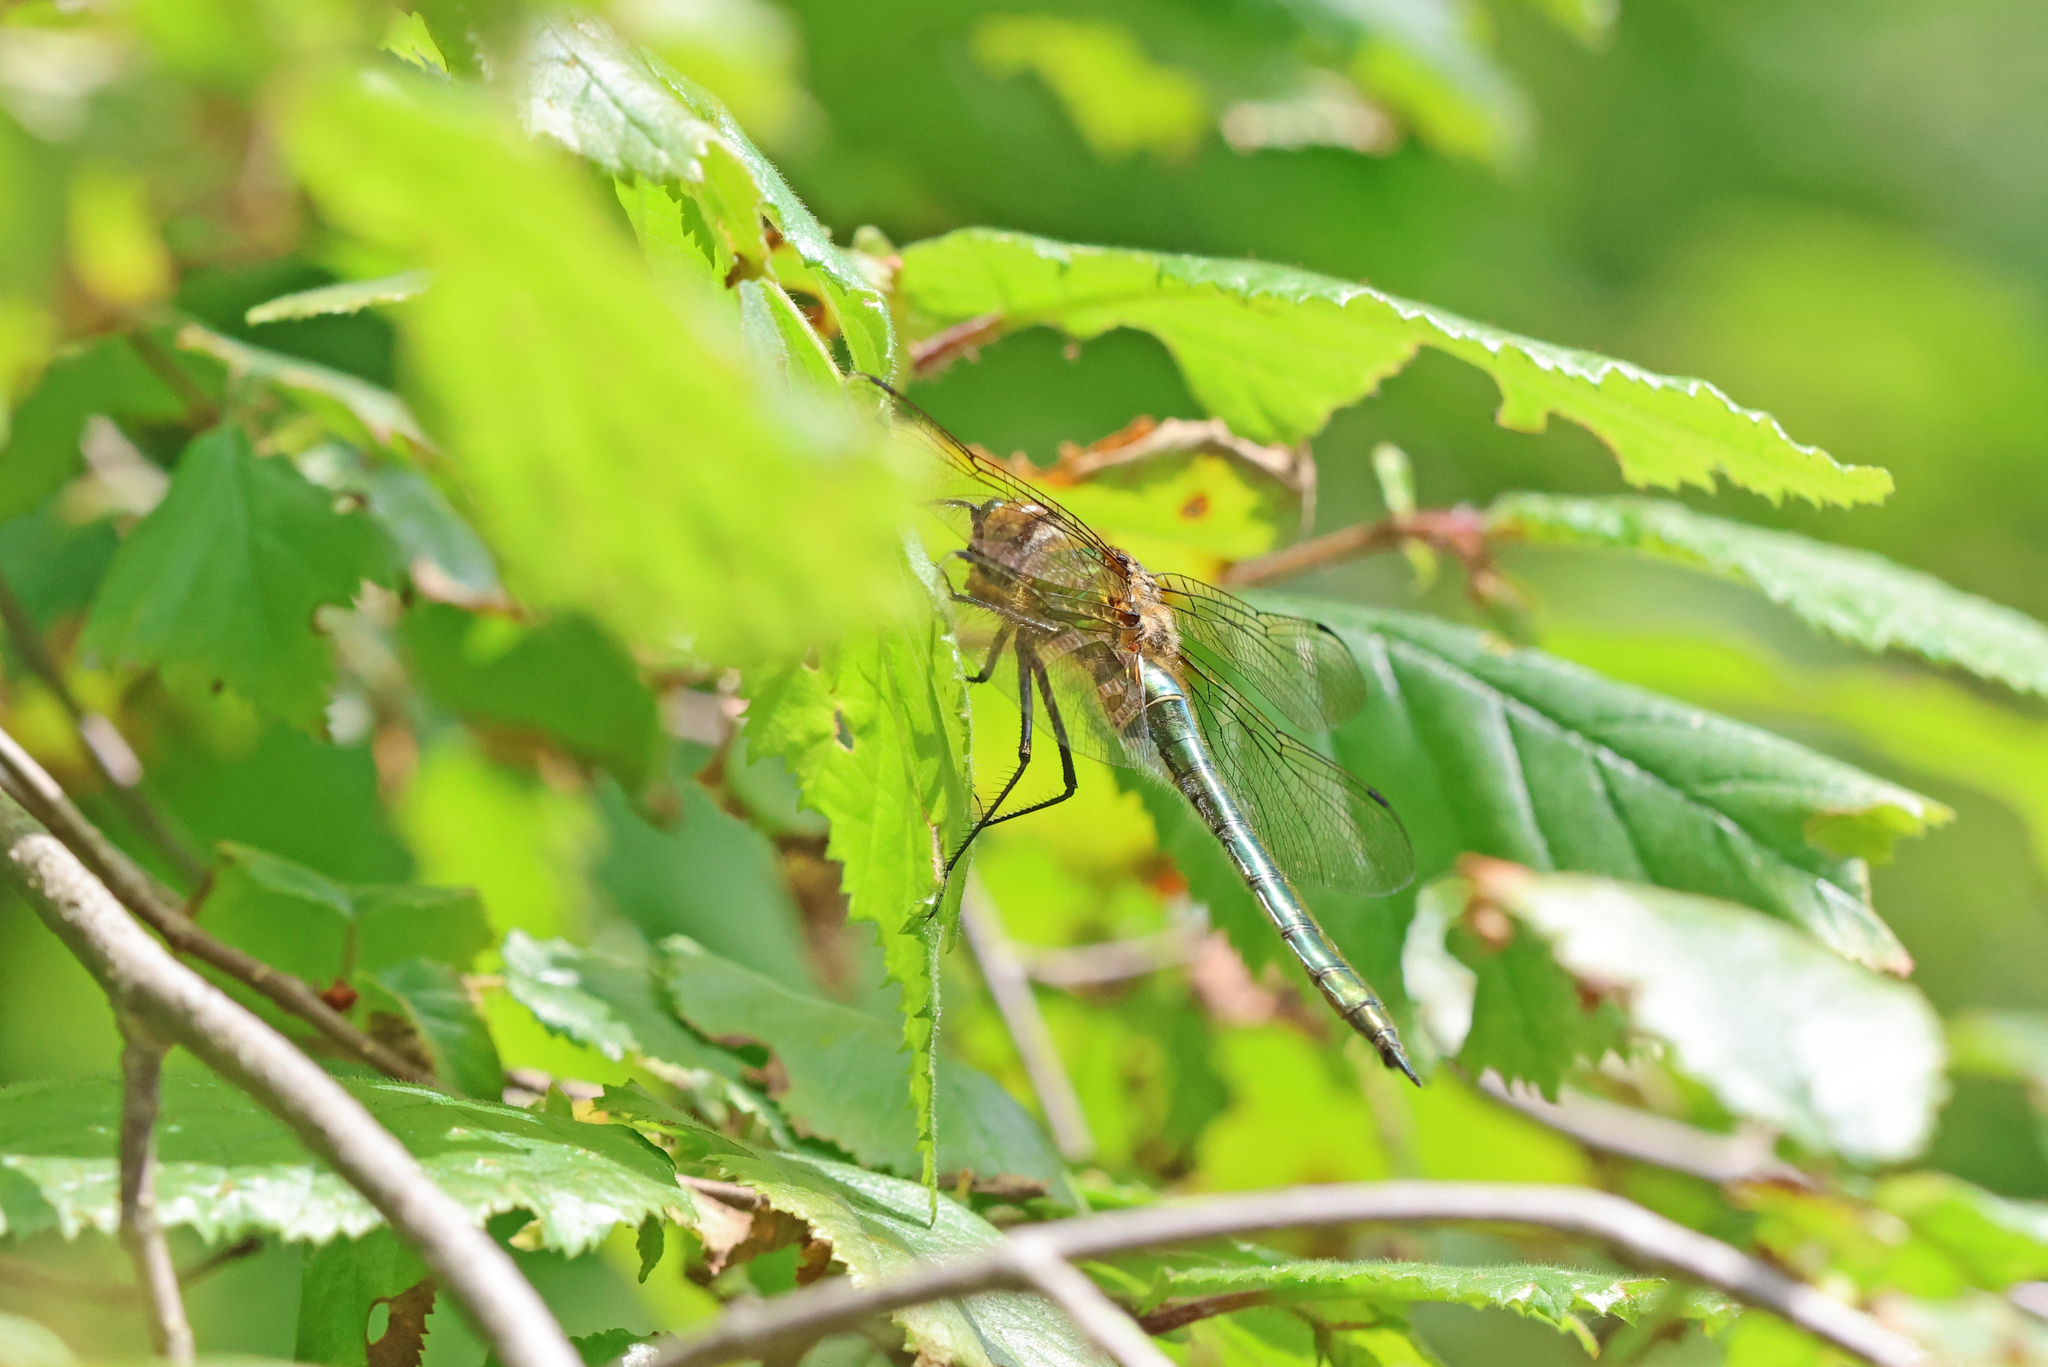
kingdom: Animalia
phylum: Arthropoda
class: Insecta
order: Odonata
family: Corduliidae
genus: Cordulia
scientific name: Cordulia aenea
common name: Downy emerald
